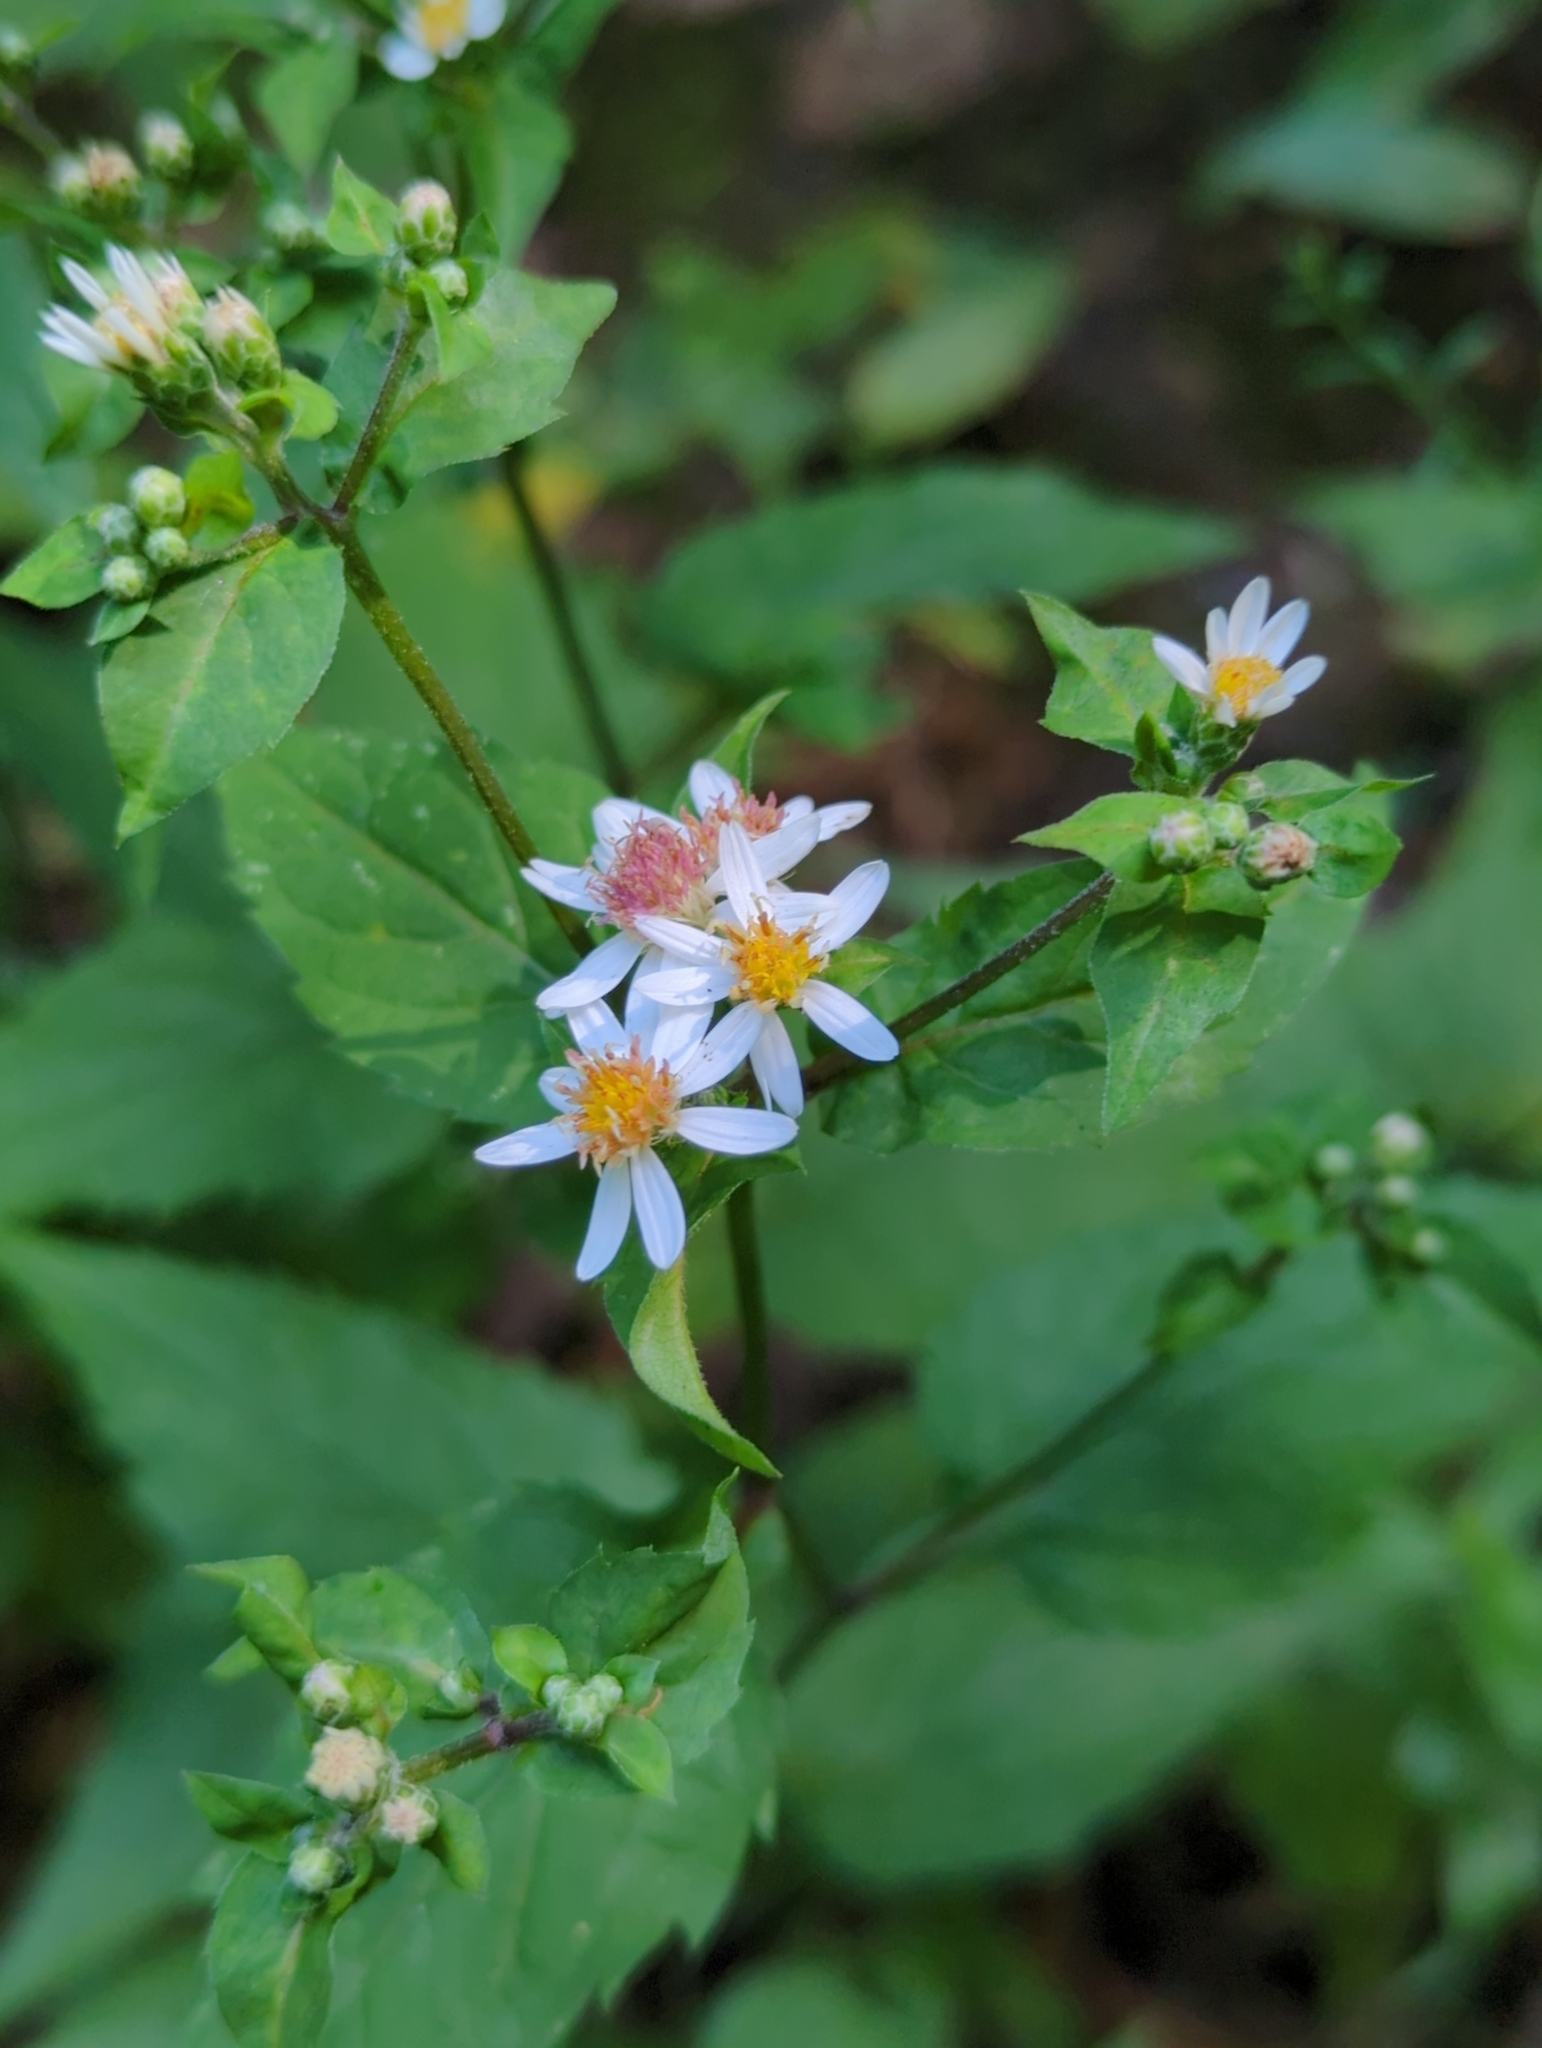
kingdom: Plantae
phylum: Tracheophyta
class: Magnoliopsida
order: Asterales
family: Asteraceae
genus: Eurybia
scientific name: Eurybia divaricata
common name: White wood aster
